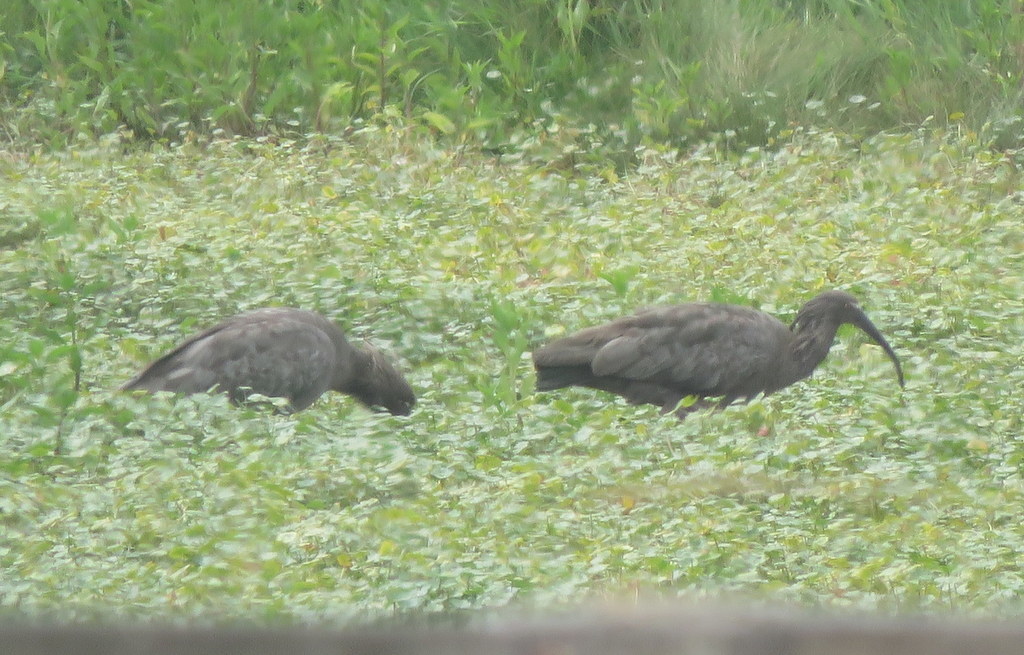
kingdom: Animalia
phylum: Chordata
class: Aves
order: Pelecaniformes
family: Threskiornithidae
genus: Theristicus
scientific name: Theristicus caerulescens
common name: Plumbeous ibis
